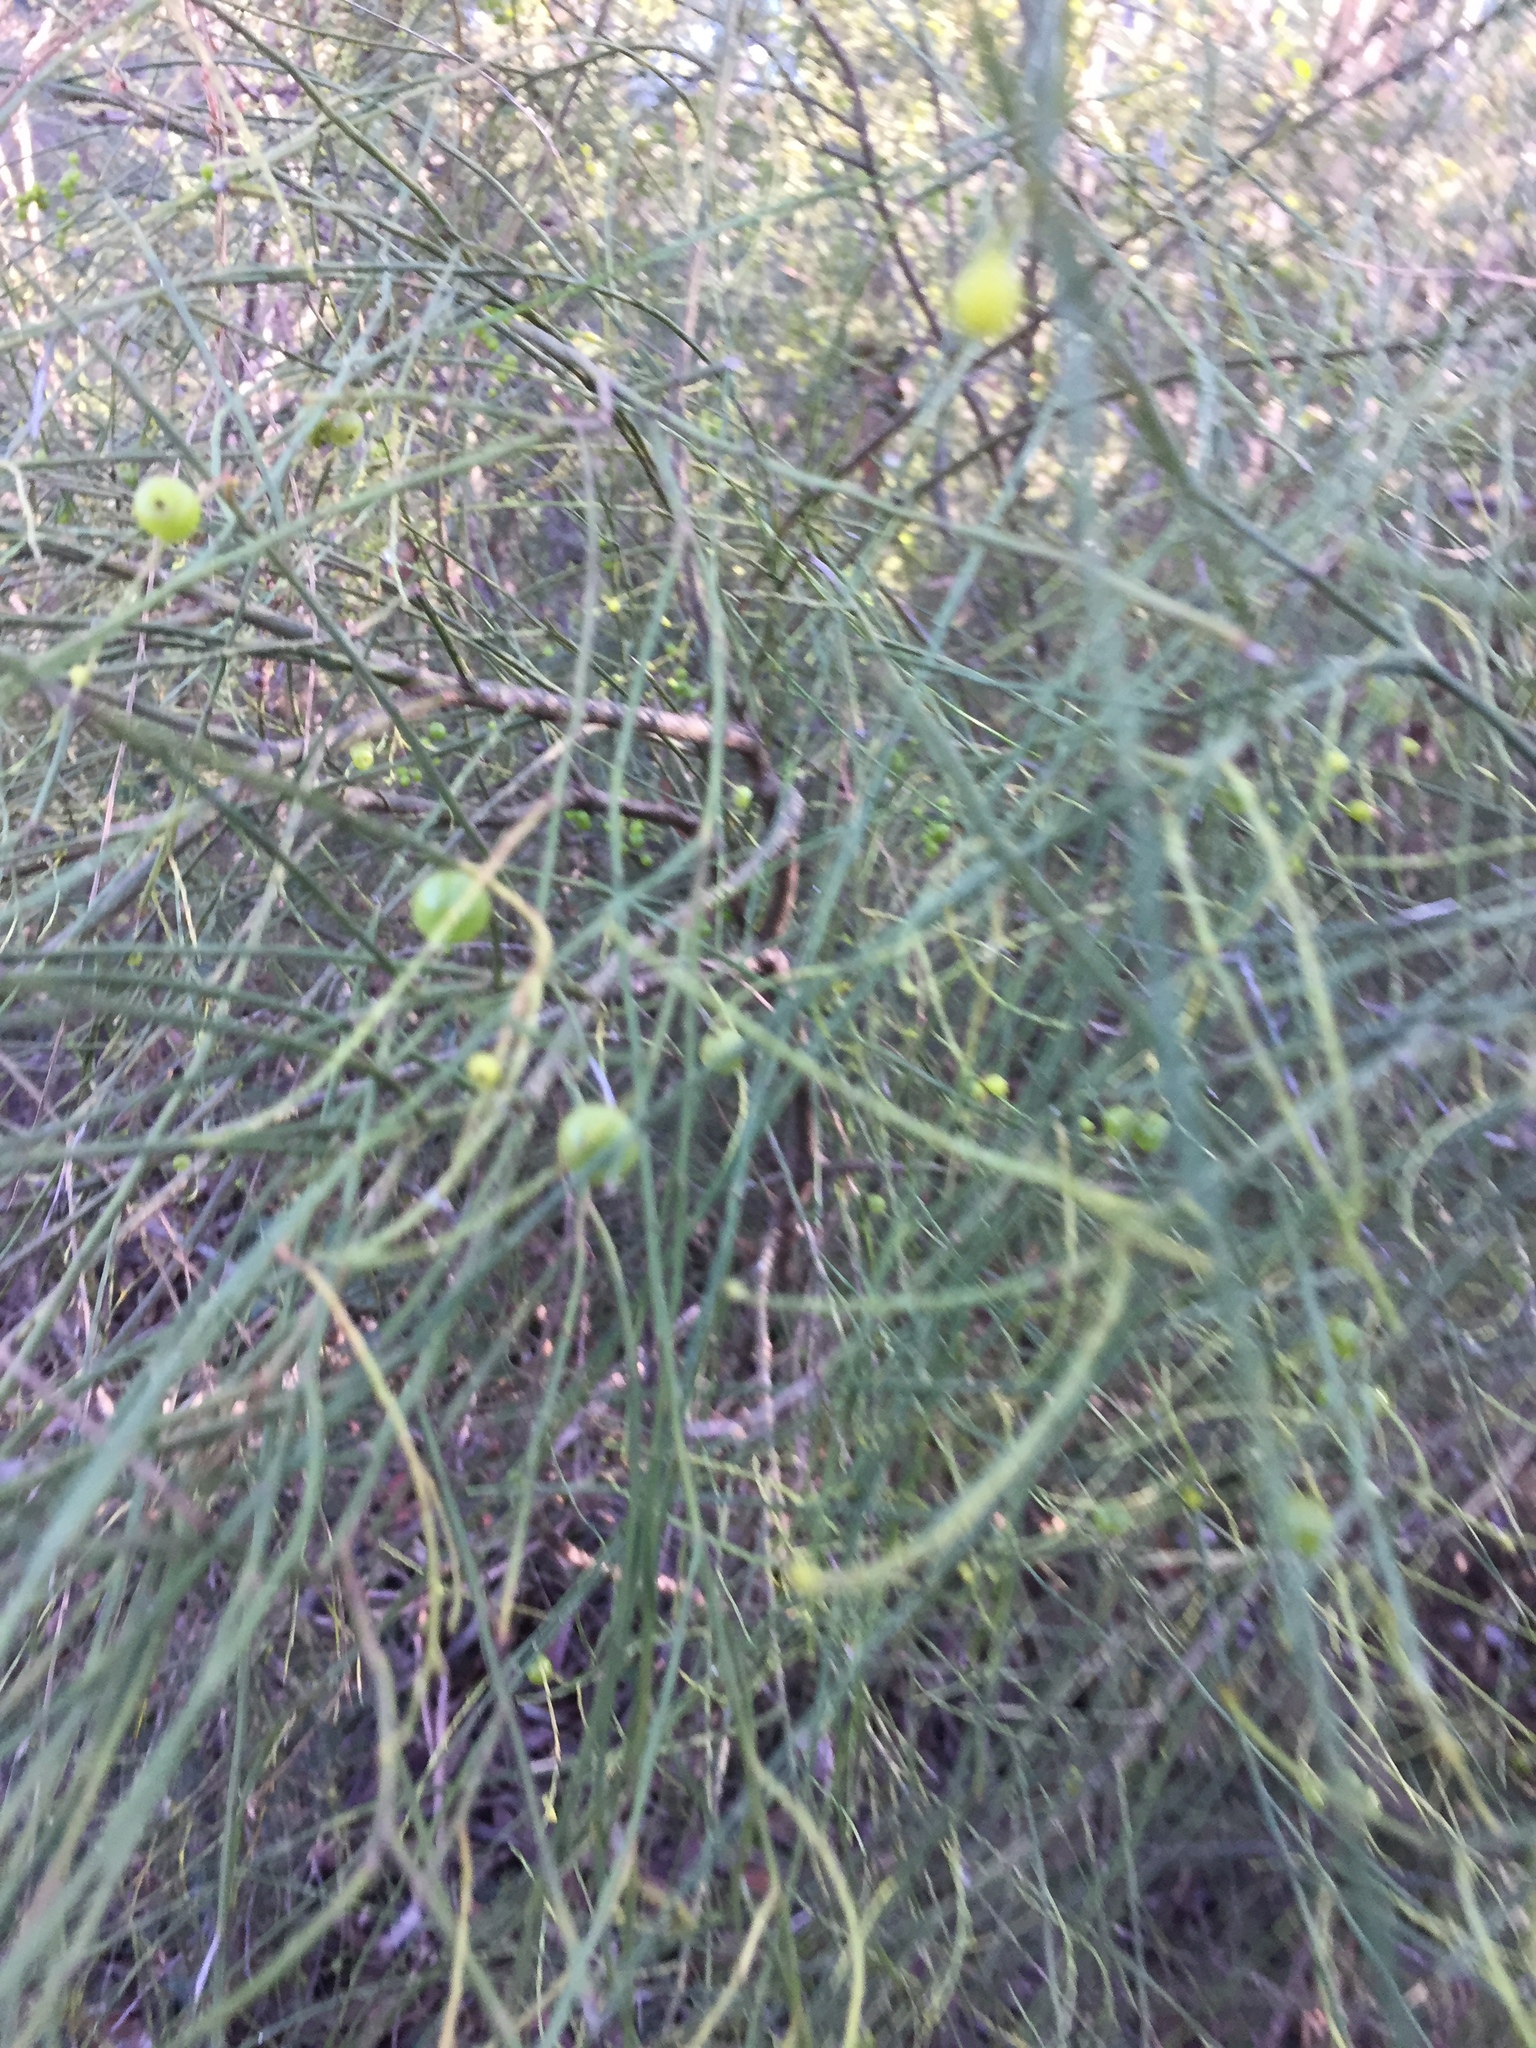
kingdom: Plantae
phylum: Tracheophyta
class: Magnoliopsida
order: Santalales
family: Amphorogynaceae
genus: Leptomeria
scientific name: Leptomeria acida
